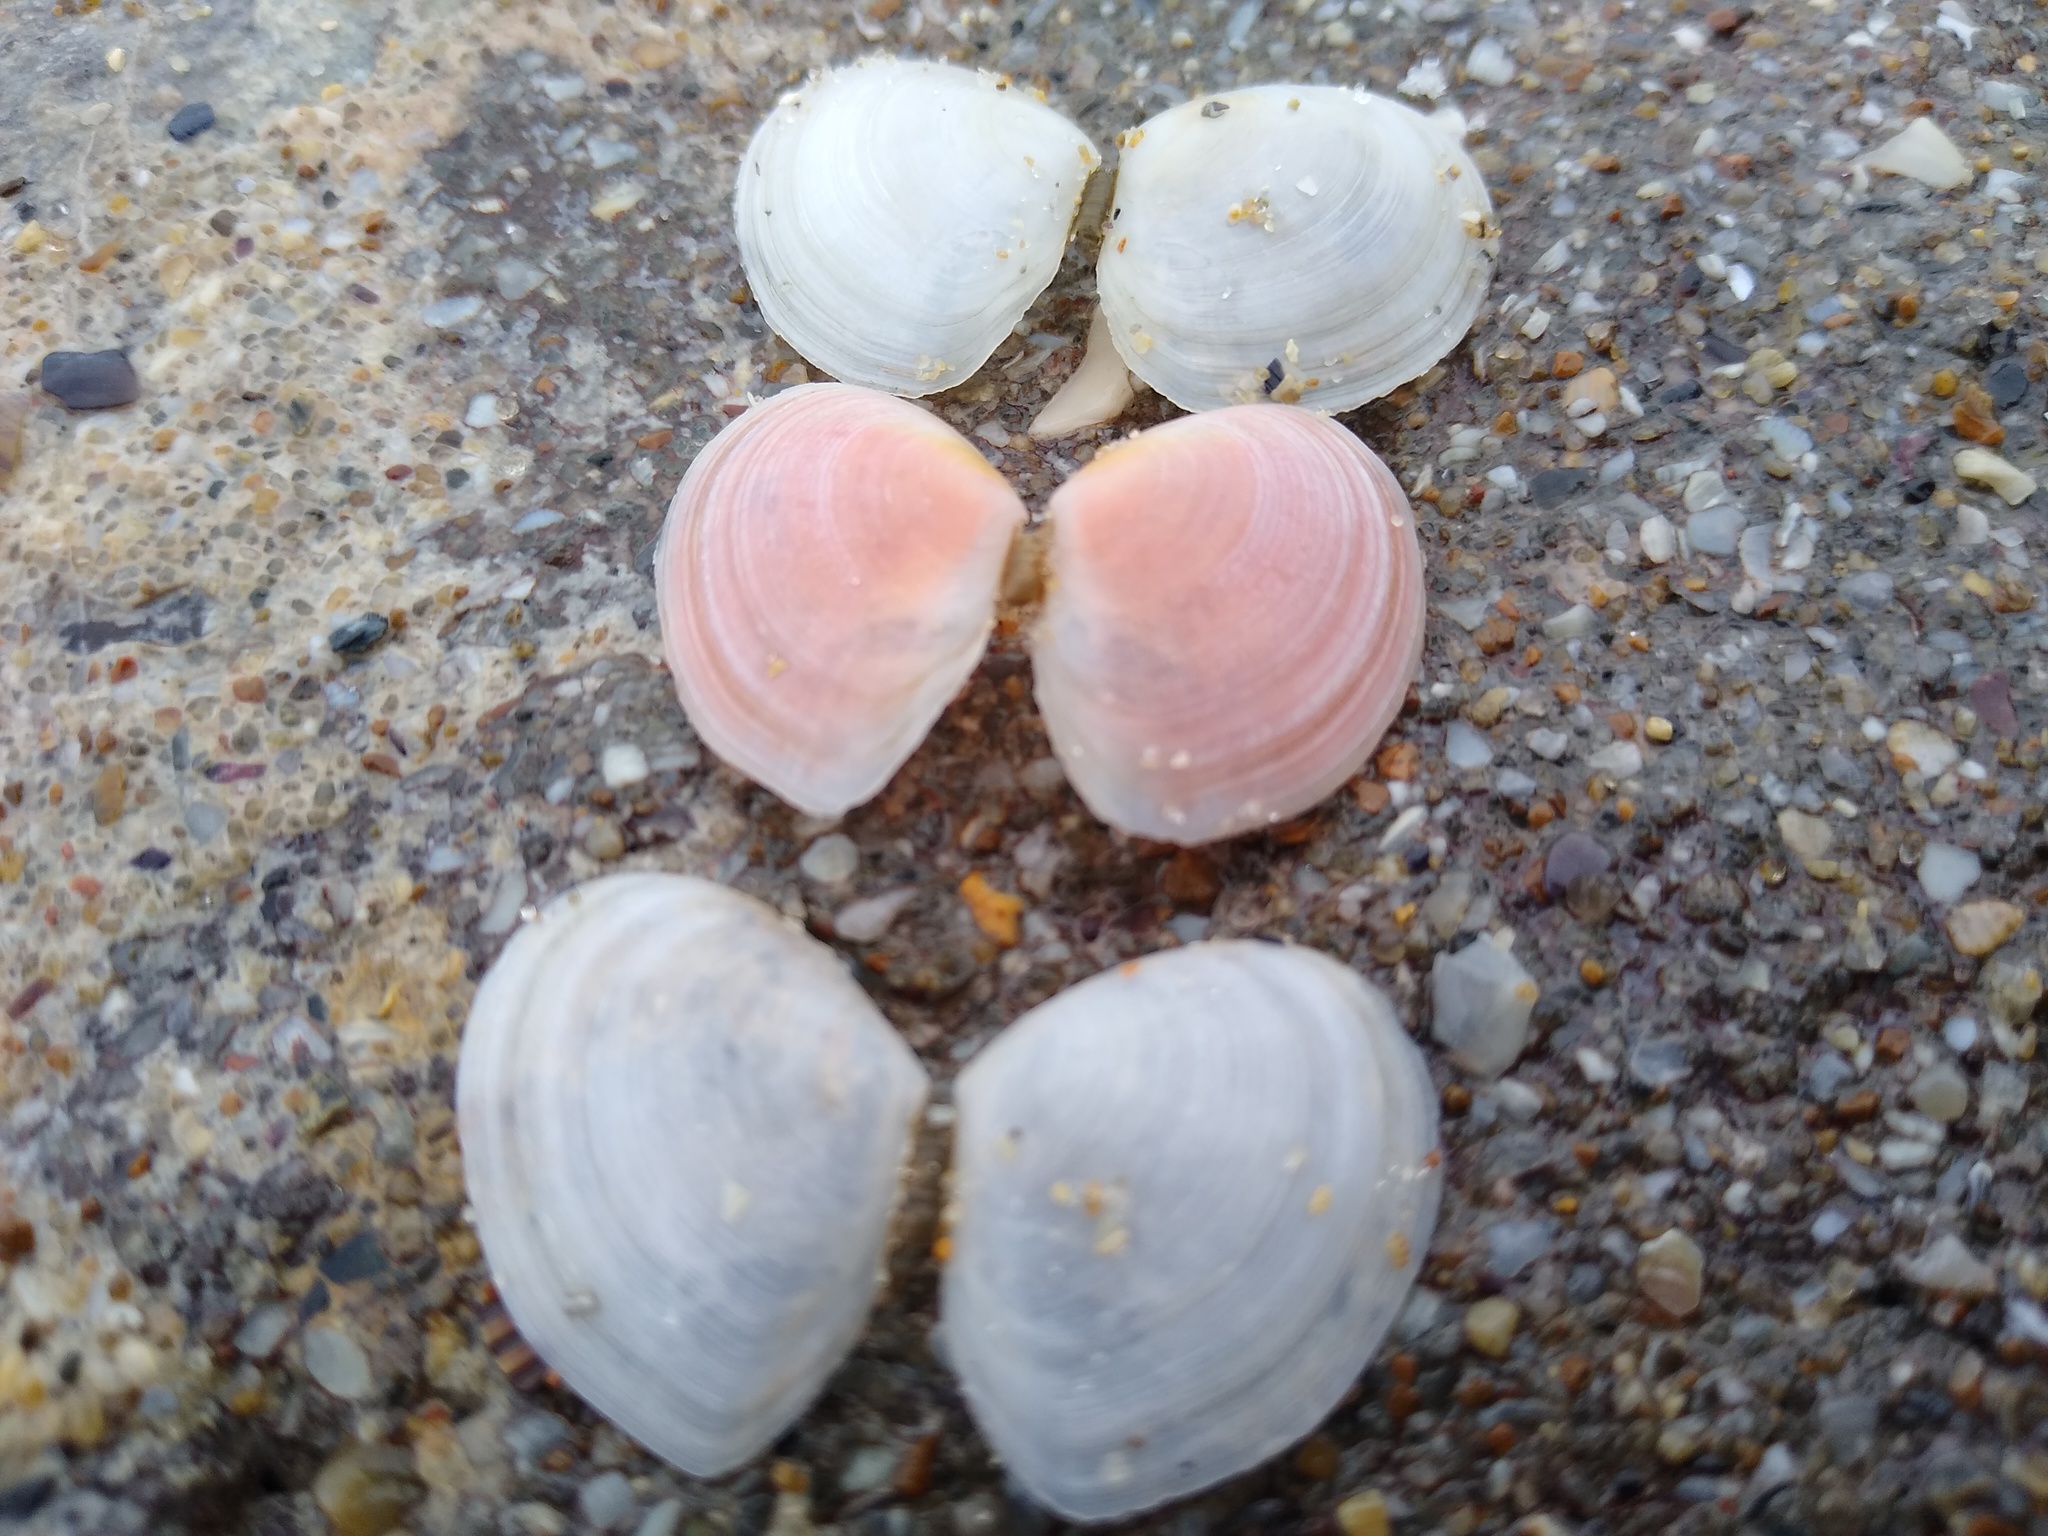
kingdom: Animalia
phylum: Mollusca
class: Bivalvia
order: Cardiida
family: Tellinidae
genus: Macomangulus
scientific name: Macomangulus tenuis
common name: Thin tellin
